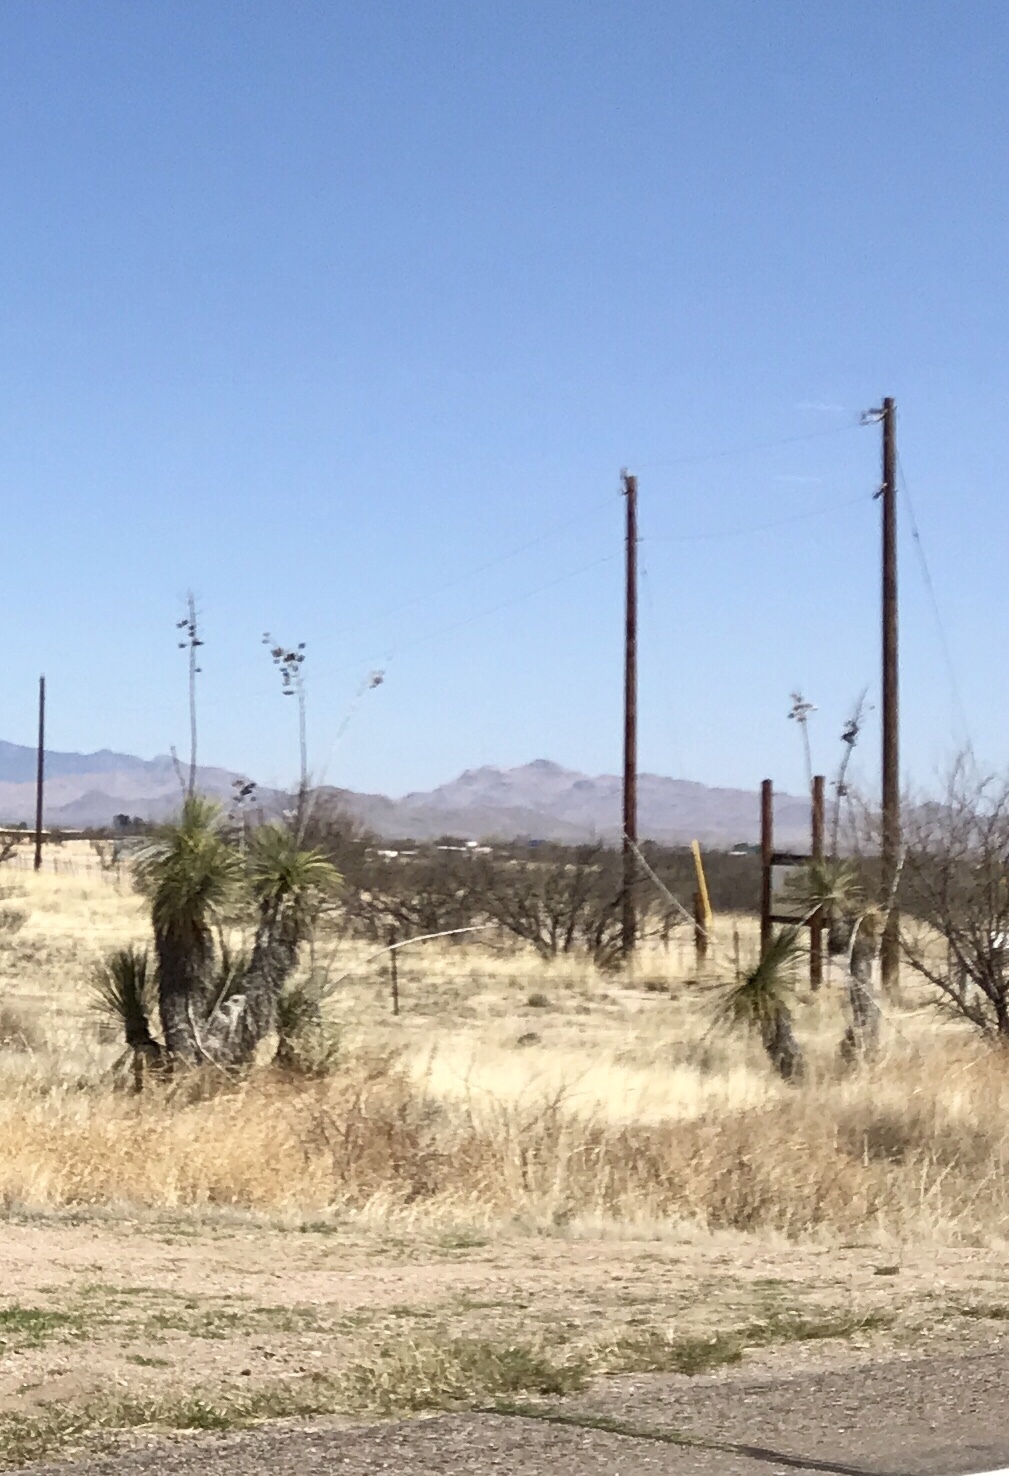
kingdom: Plantae
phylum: Tracheophyta
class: Liliopsida
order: Asparagales
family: Asparagaceae
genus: Yucca
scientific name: Yucca elata
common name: Palmella
